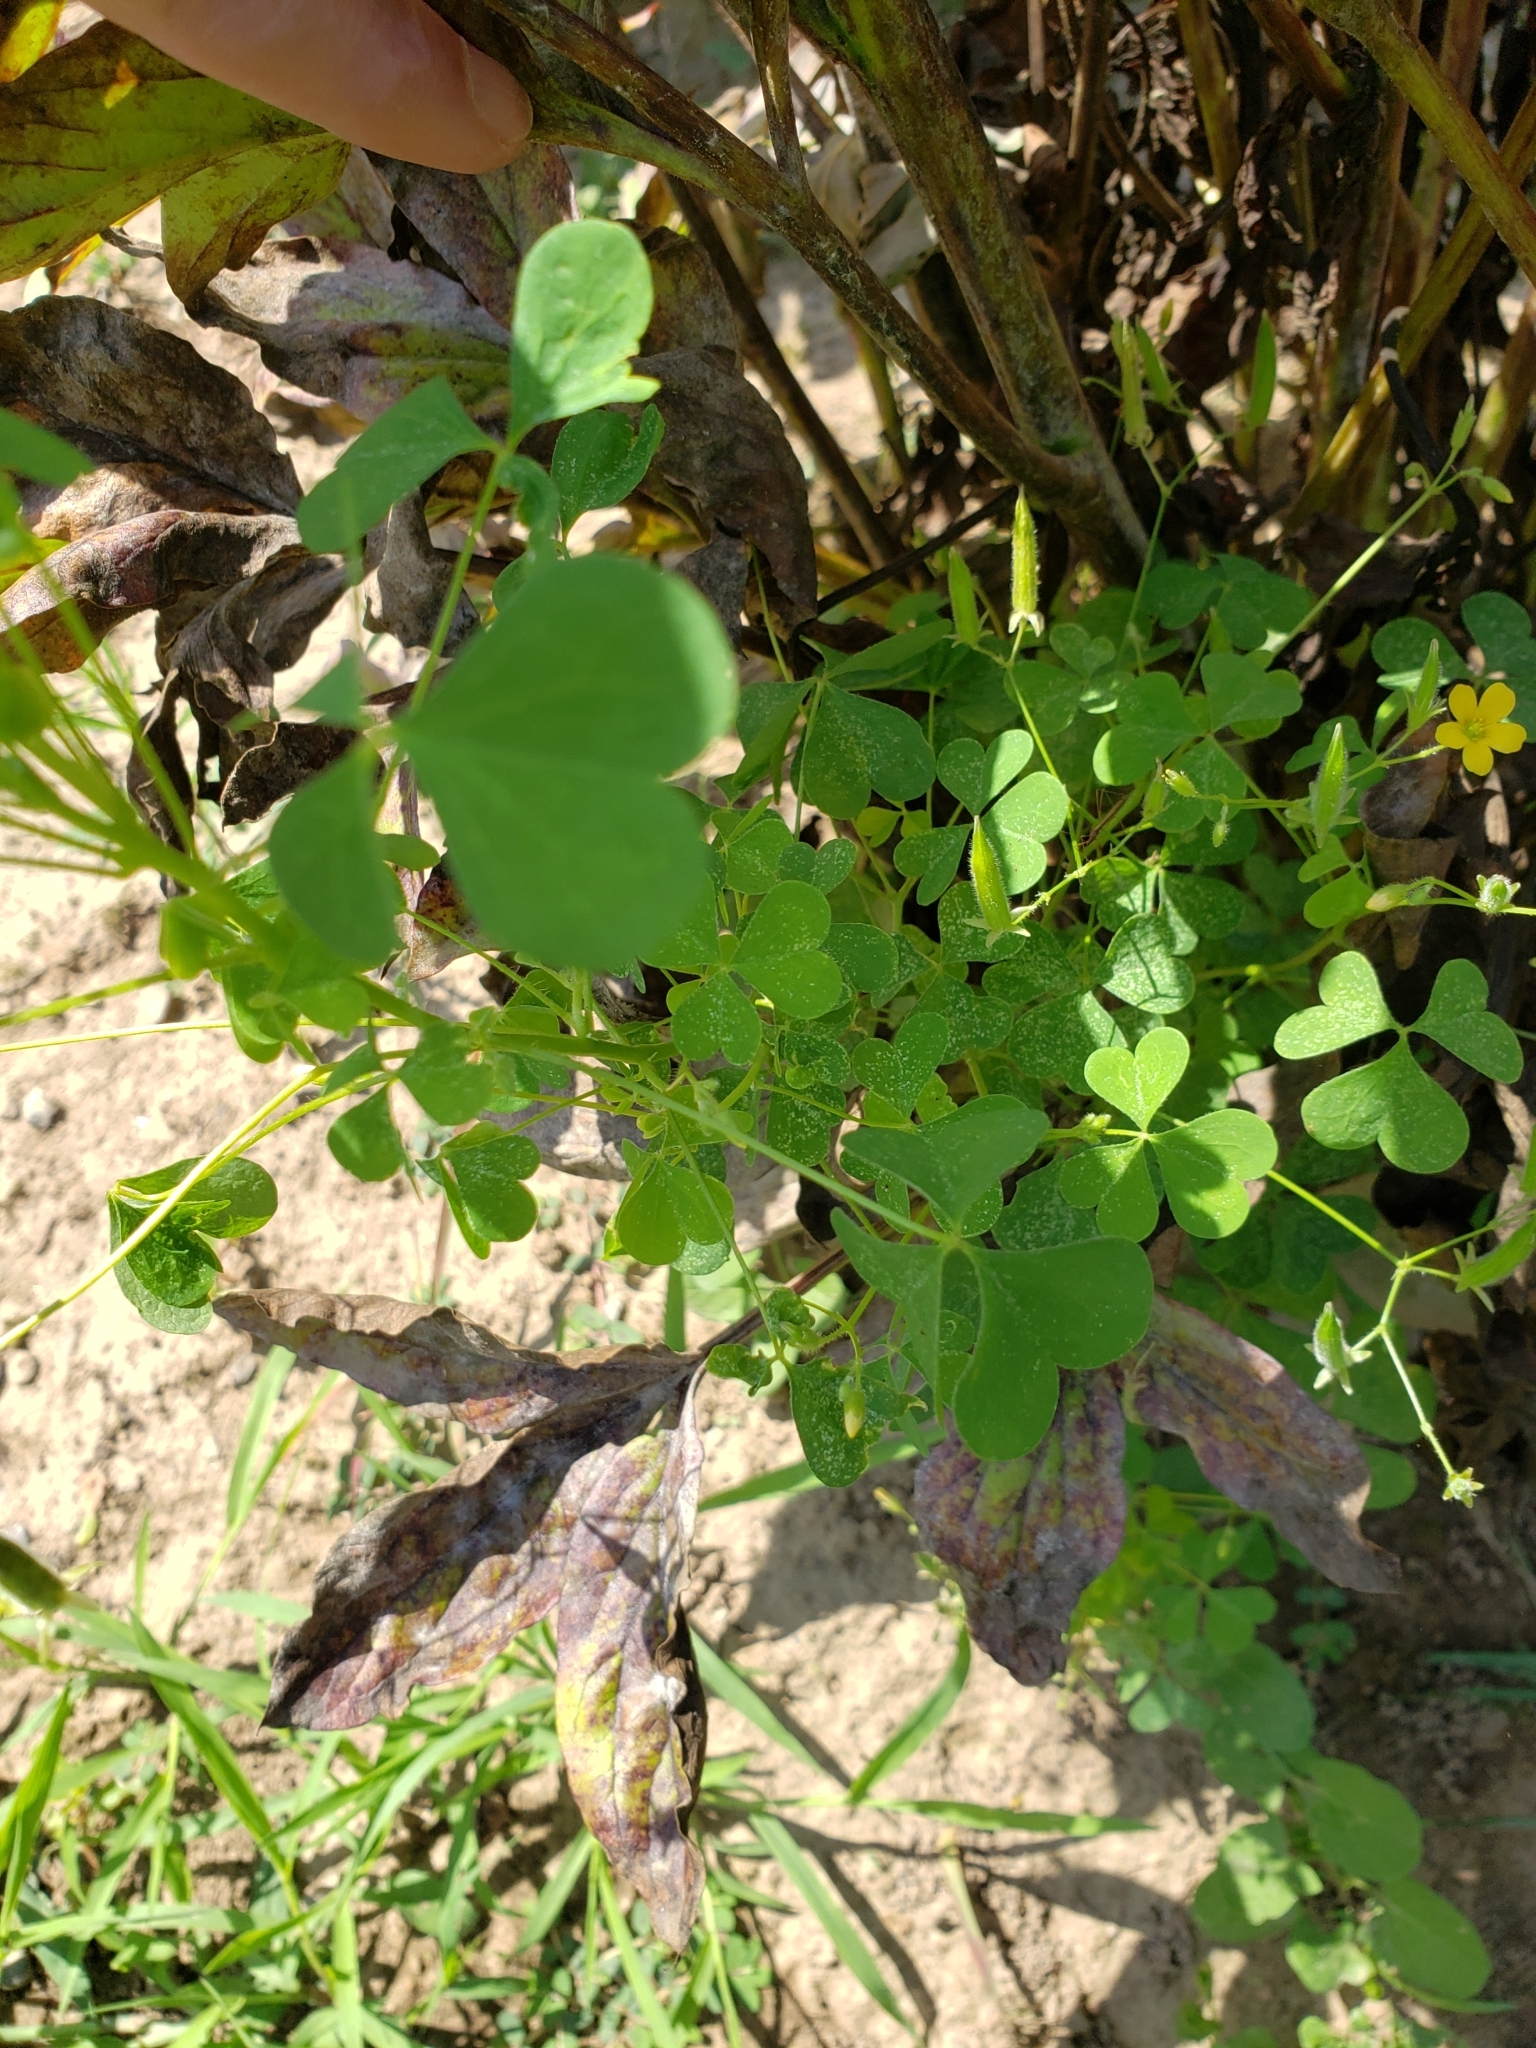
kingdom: Plantae
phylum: Tracheophyta
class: Magnoliopsida
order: Oxalidales
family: Oxalidaceae
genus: Oxalis
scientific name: Oxalis stricta
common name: Upright yellow-sorrel
